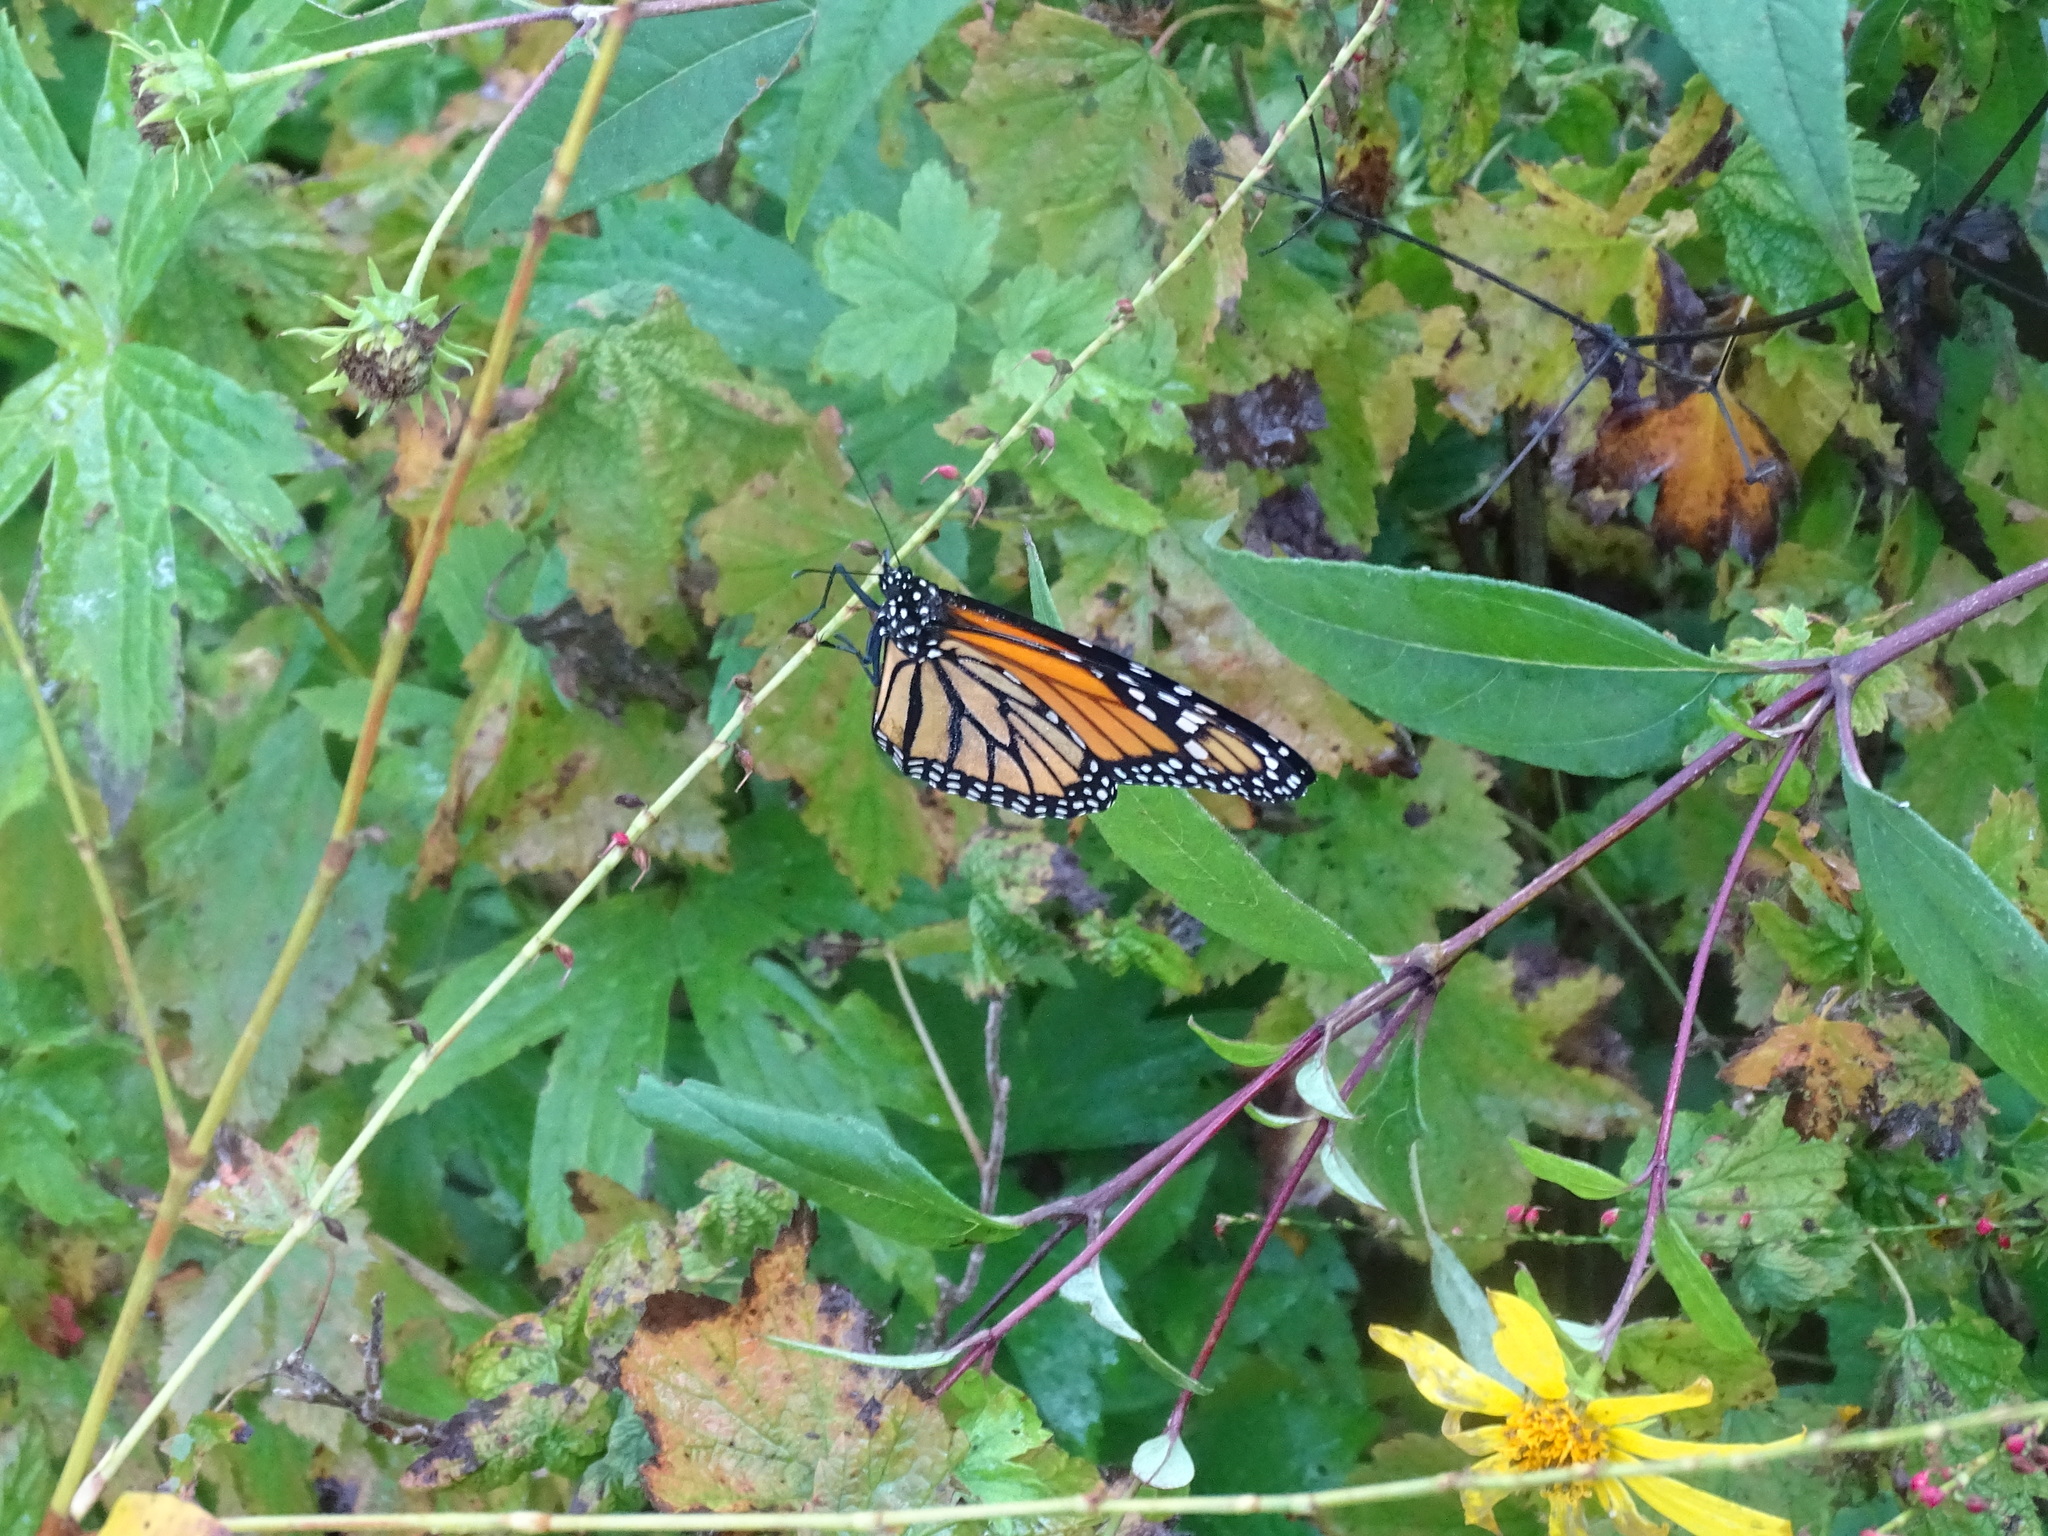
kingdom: Animalia
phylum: Arthropoda
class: Insecta
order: Lepidoptera
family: Nymphalidae
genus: Danaus
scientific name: Danaus plexippus
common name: Monarch
